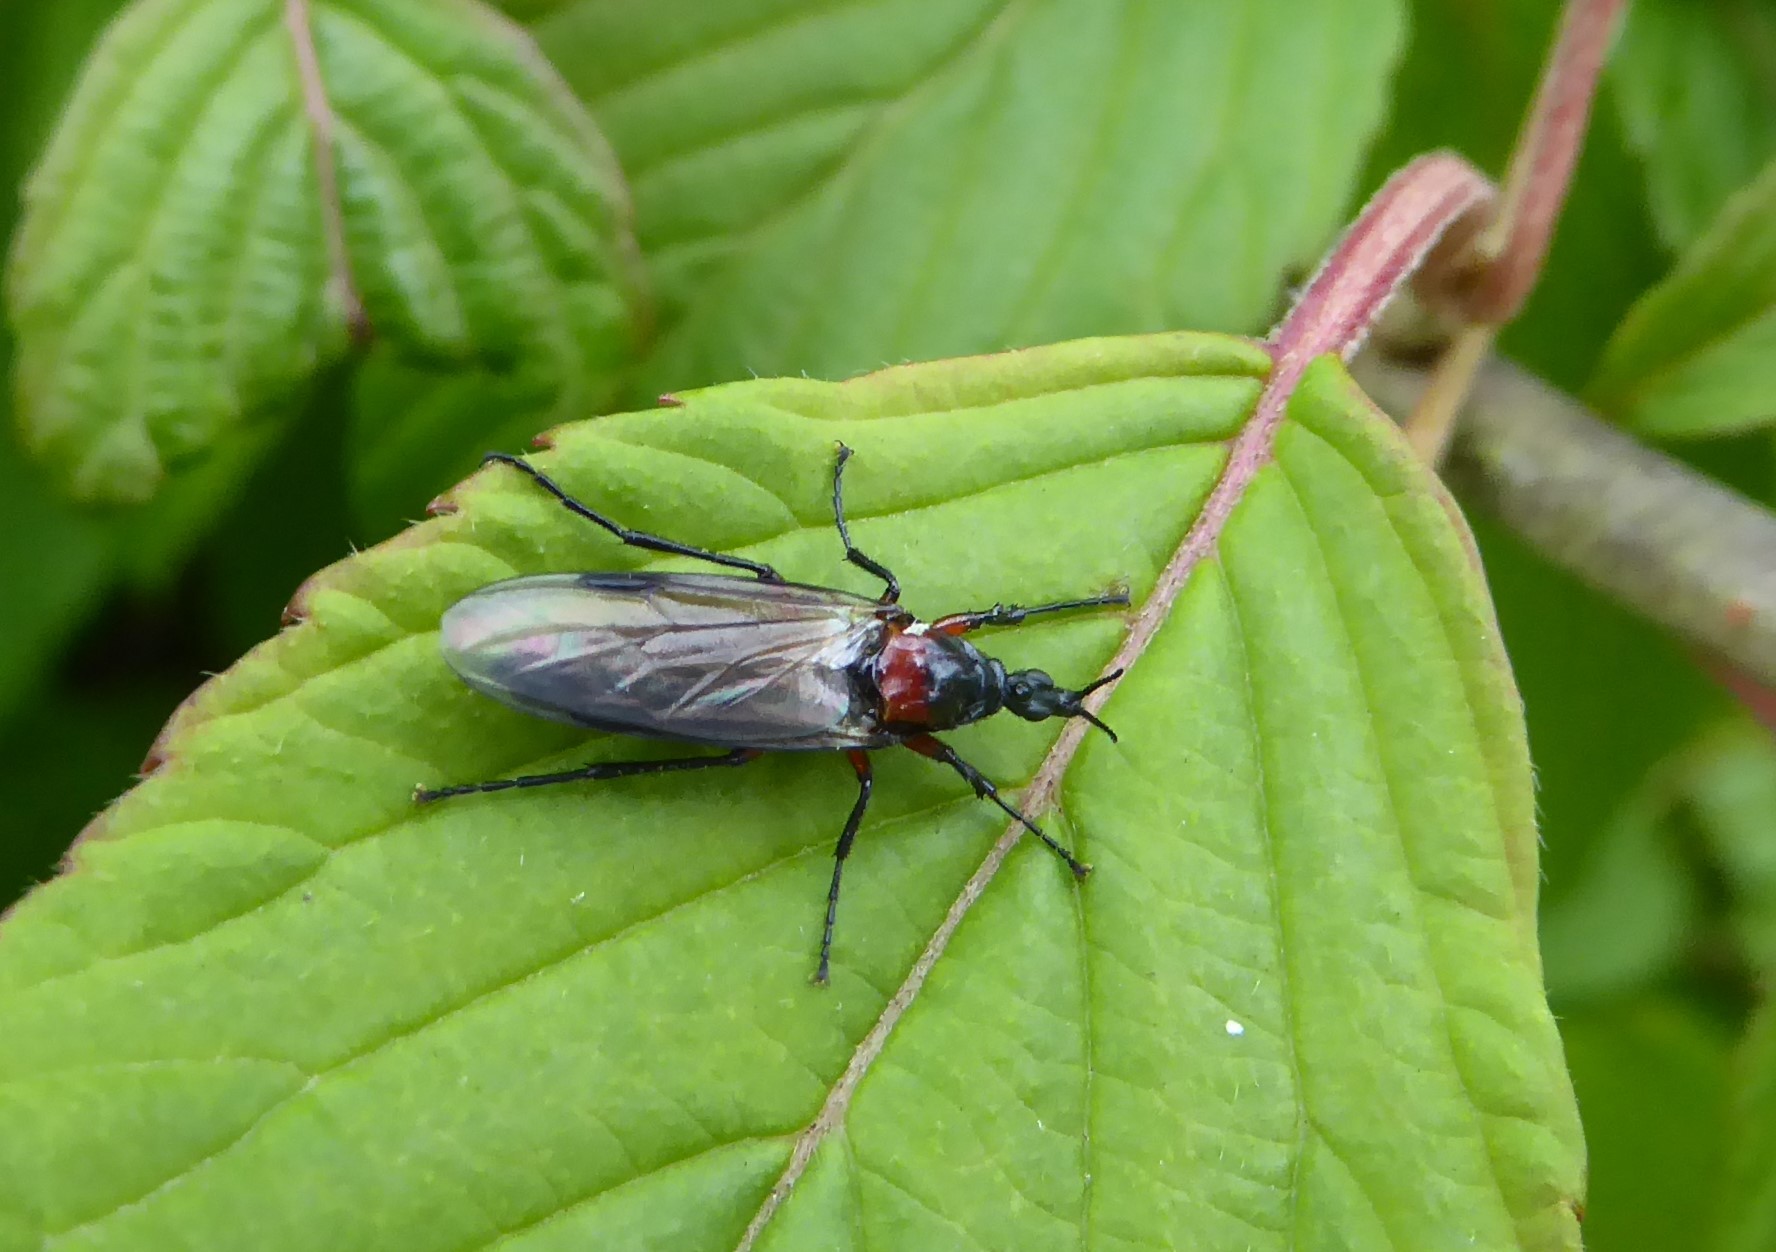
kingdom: Animalia
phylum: Arthropoda
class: Insecta
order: Diptera
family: Bibionidae
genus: Dilophus
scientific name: Dilophus nigrostigma
